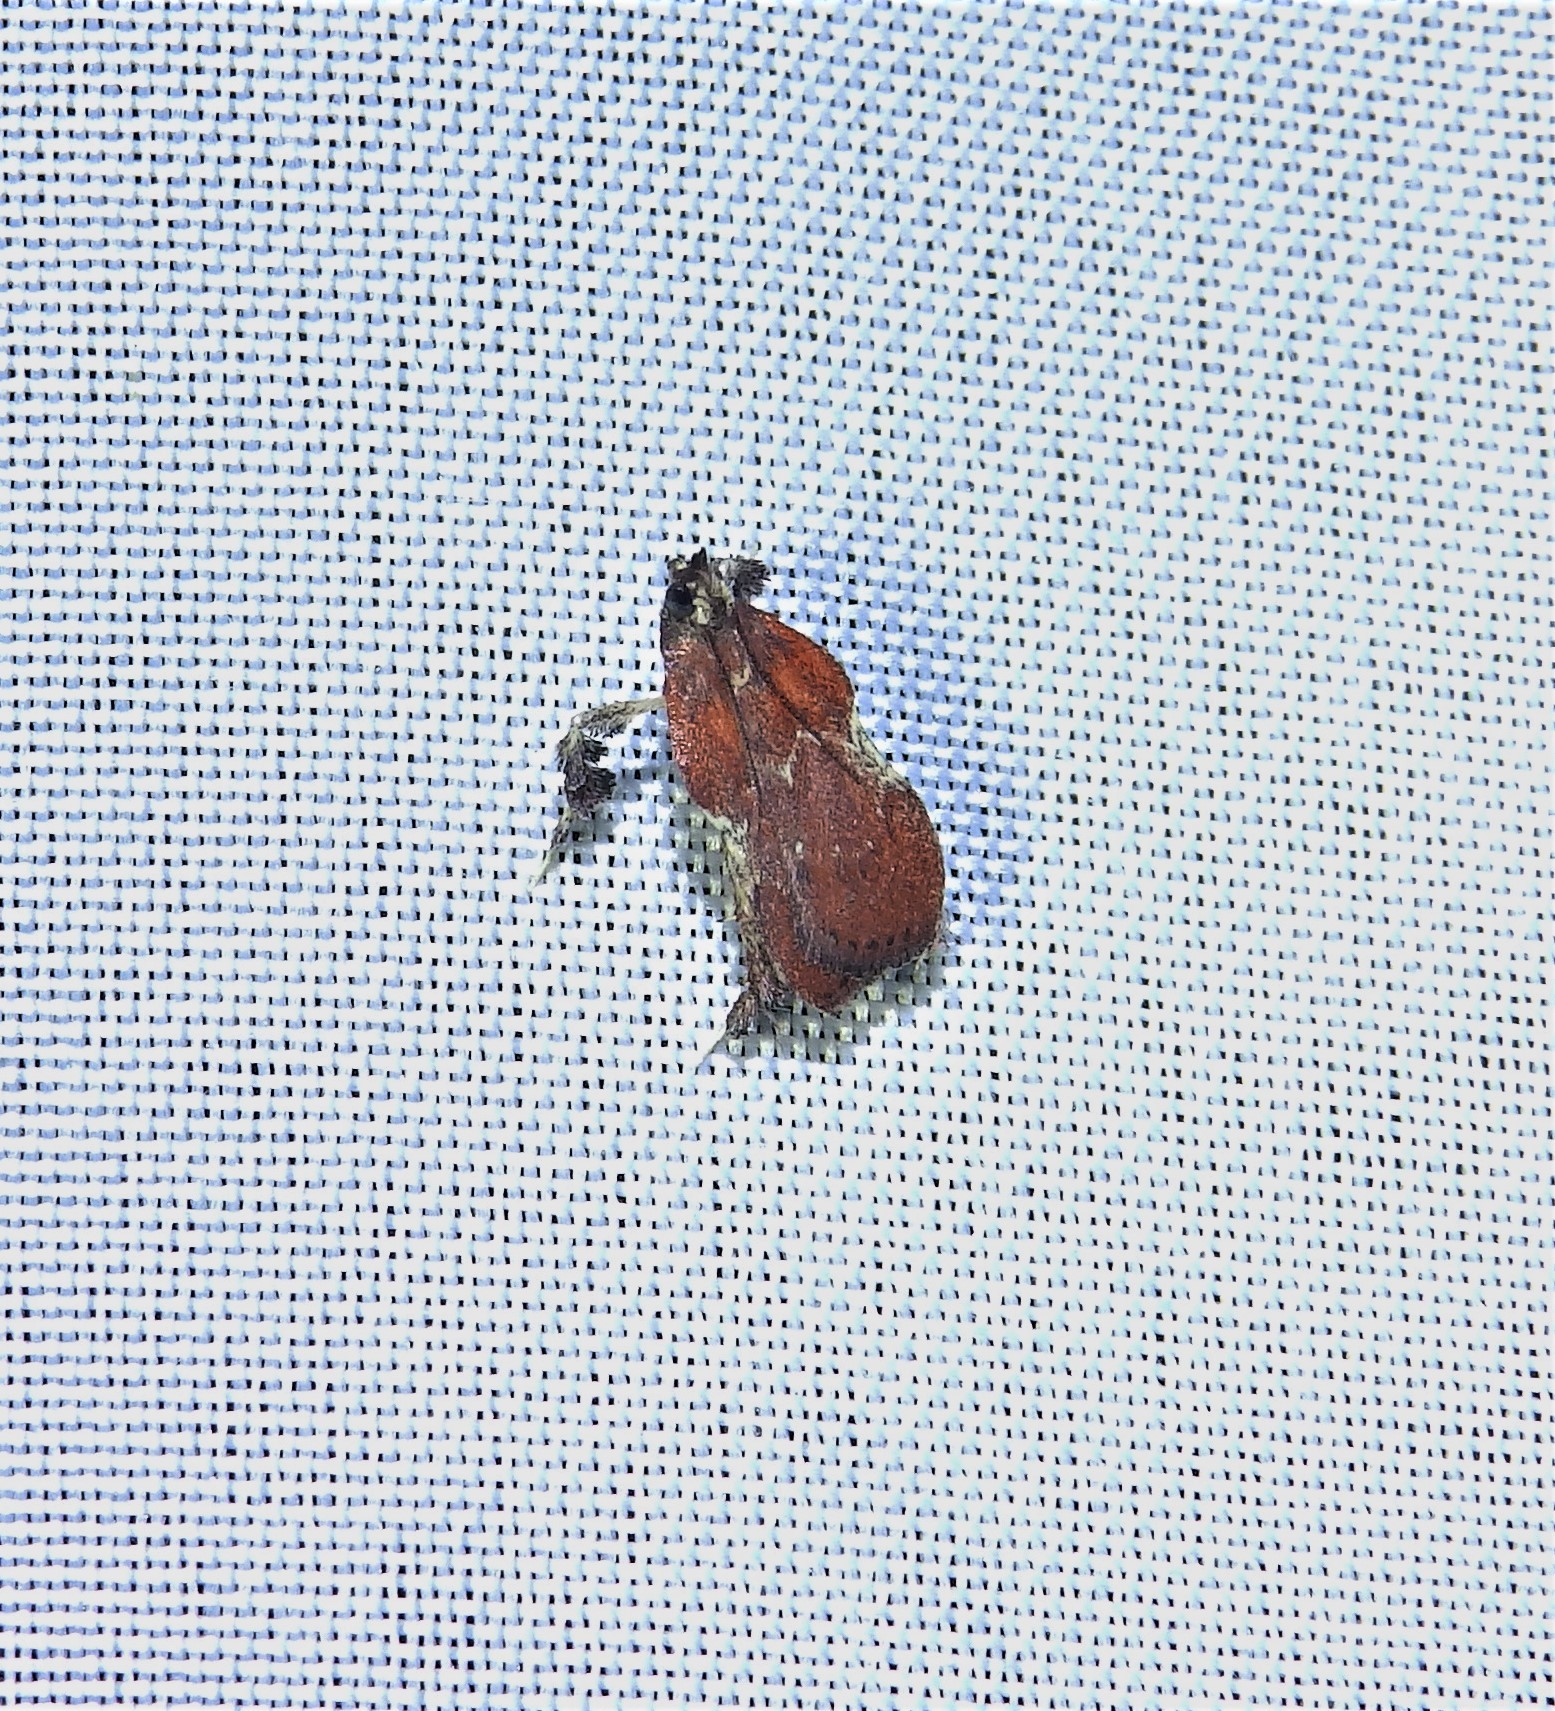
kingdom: Animalia
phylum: Arthropoda
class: Insecta
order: Lepidoptera
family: Pyralidae
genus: Galasa
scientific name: Galasa nigrinodis
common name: Boxwood leaftier moth
